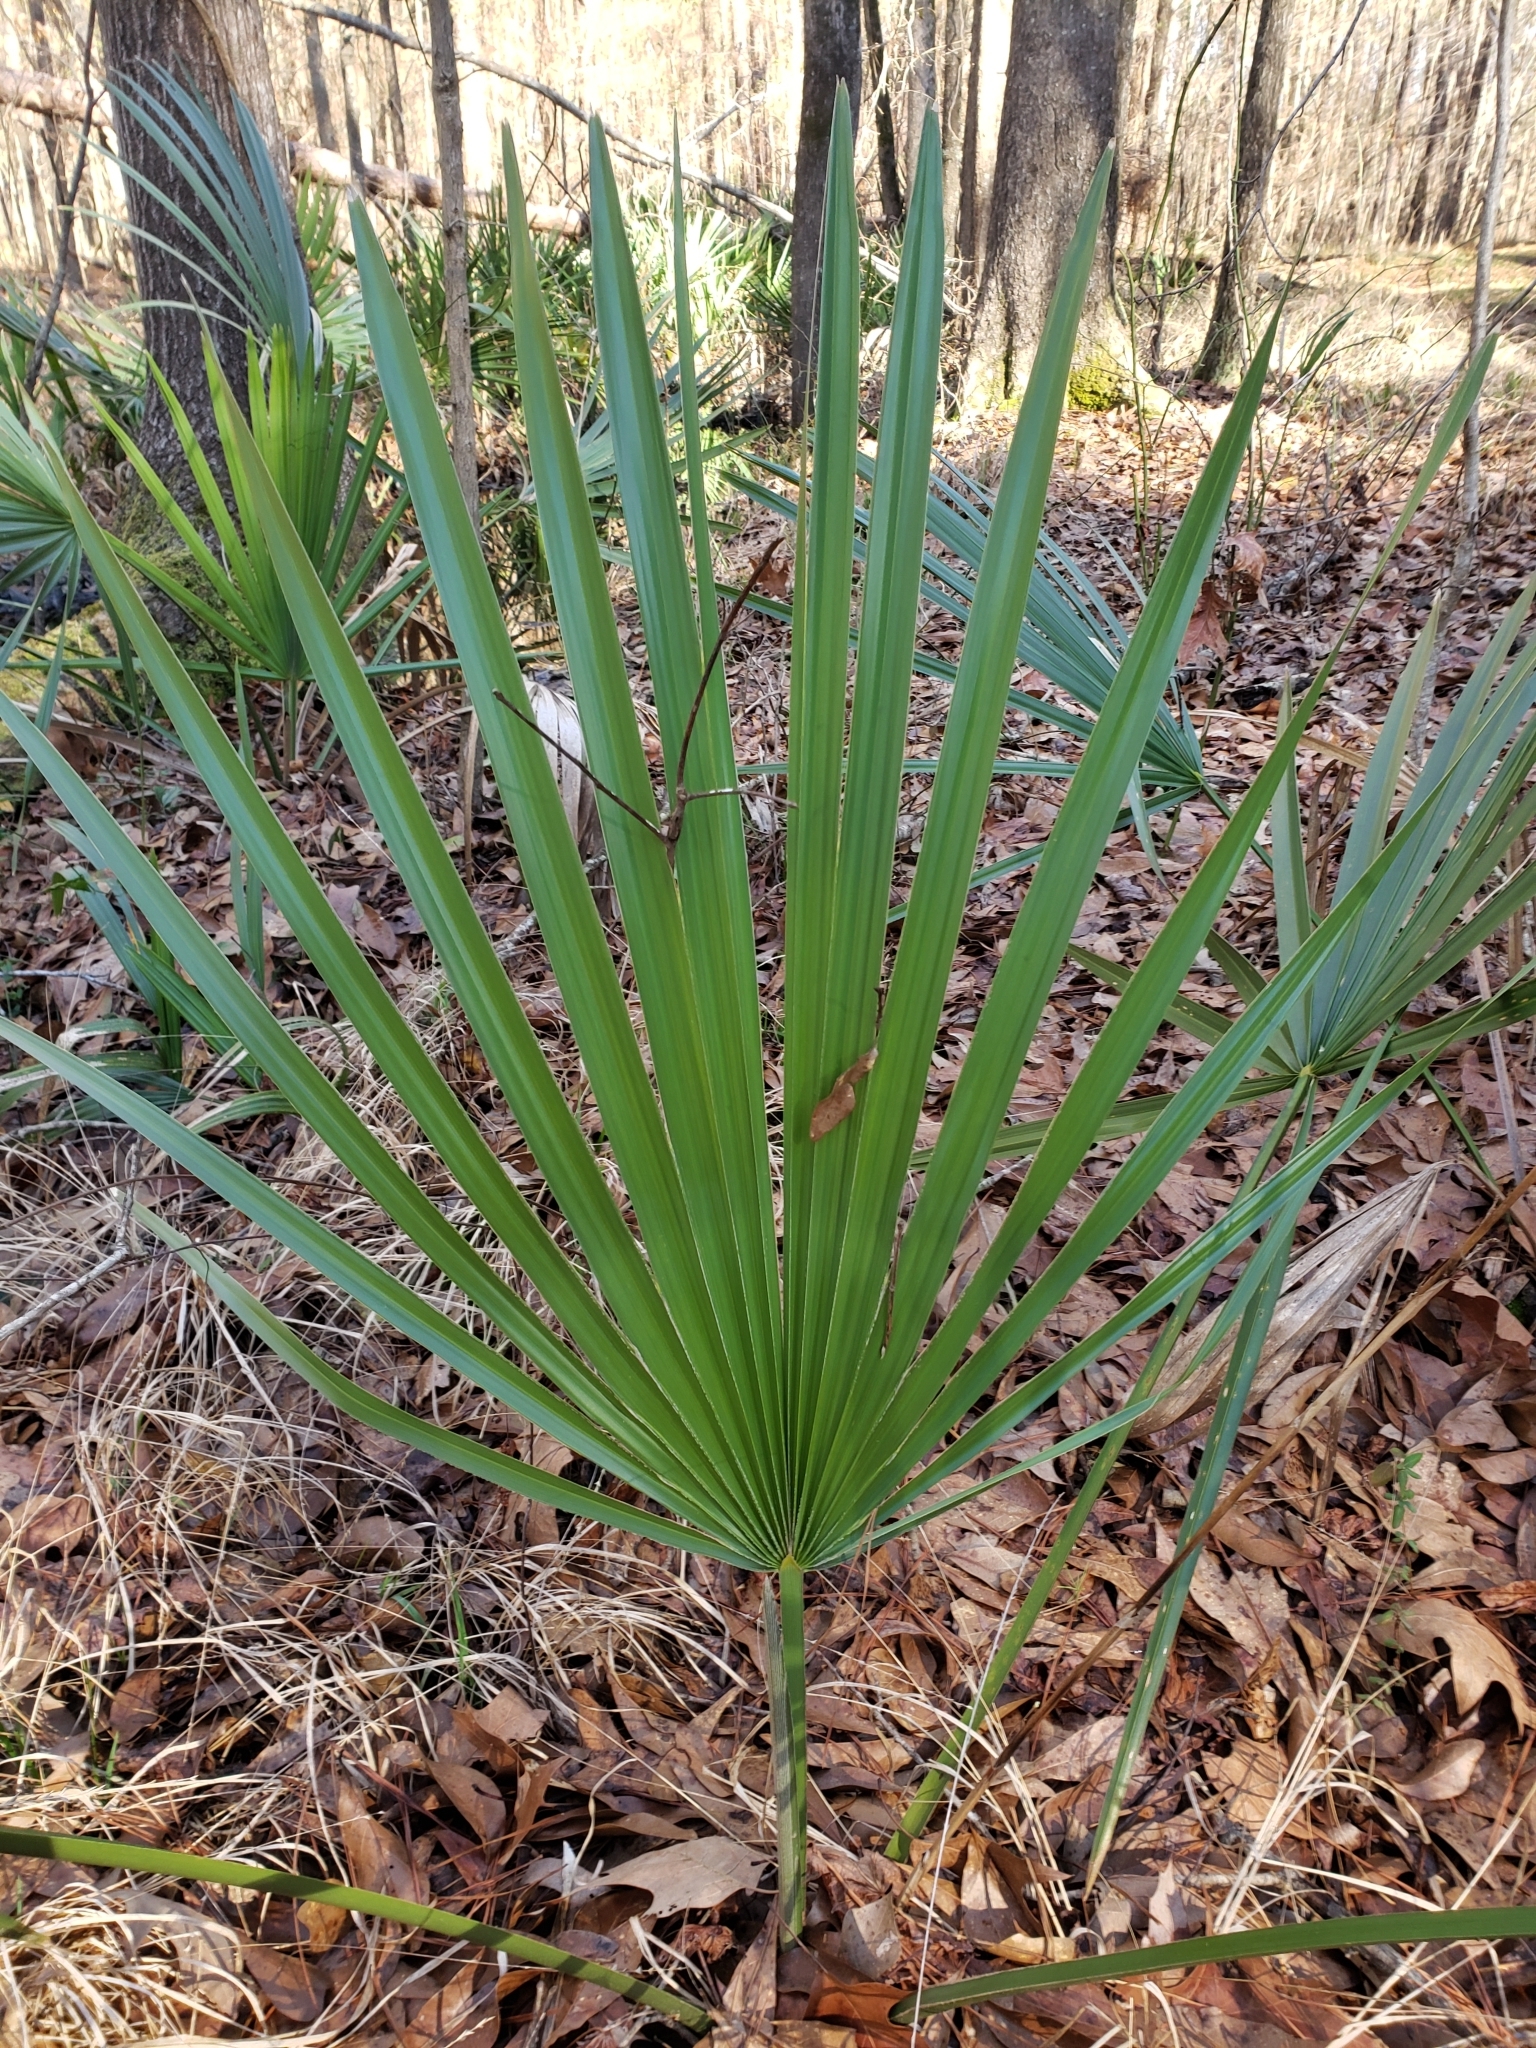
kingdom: Plantae
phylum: Tracheophyta
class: Liliopsida
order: Arecales
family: Arecaceae
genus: Sabal
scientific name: Sabal minor
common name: Dwarf palmetto
